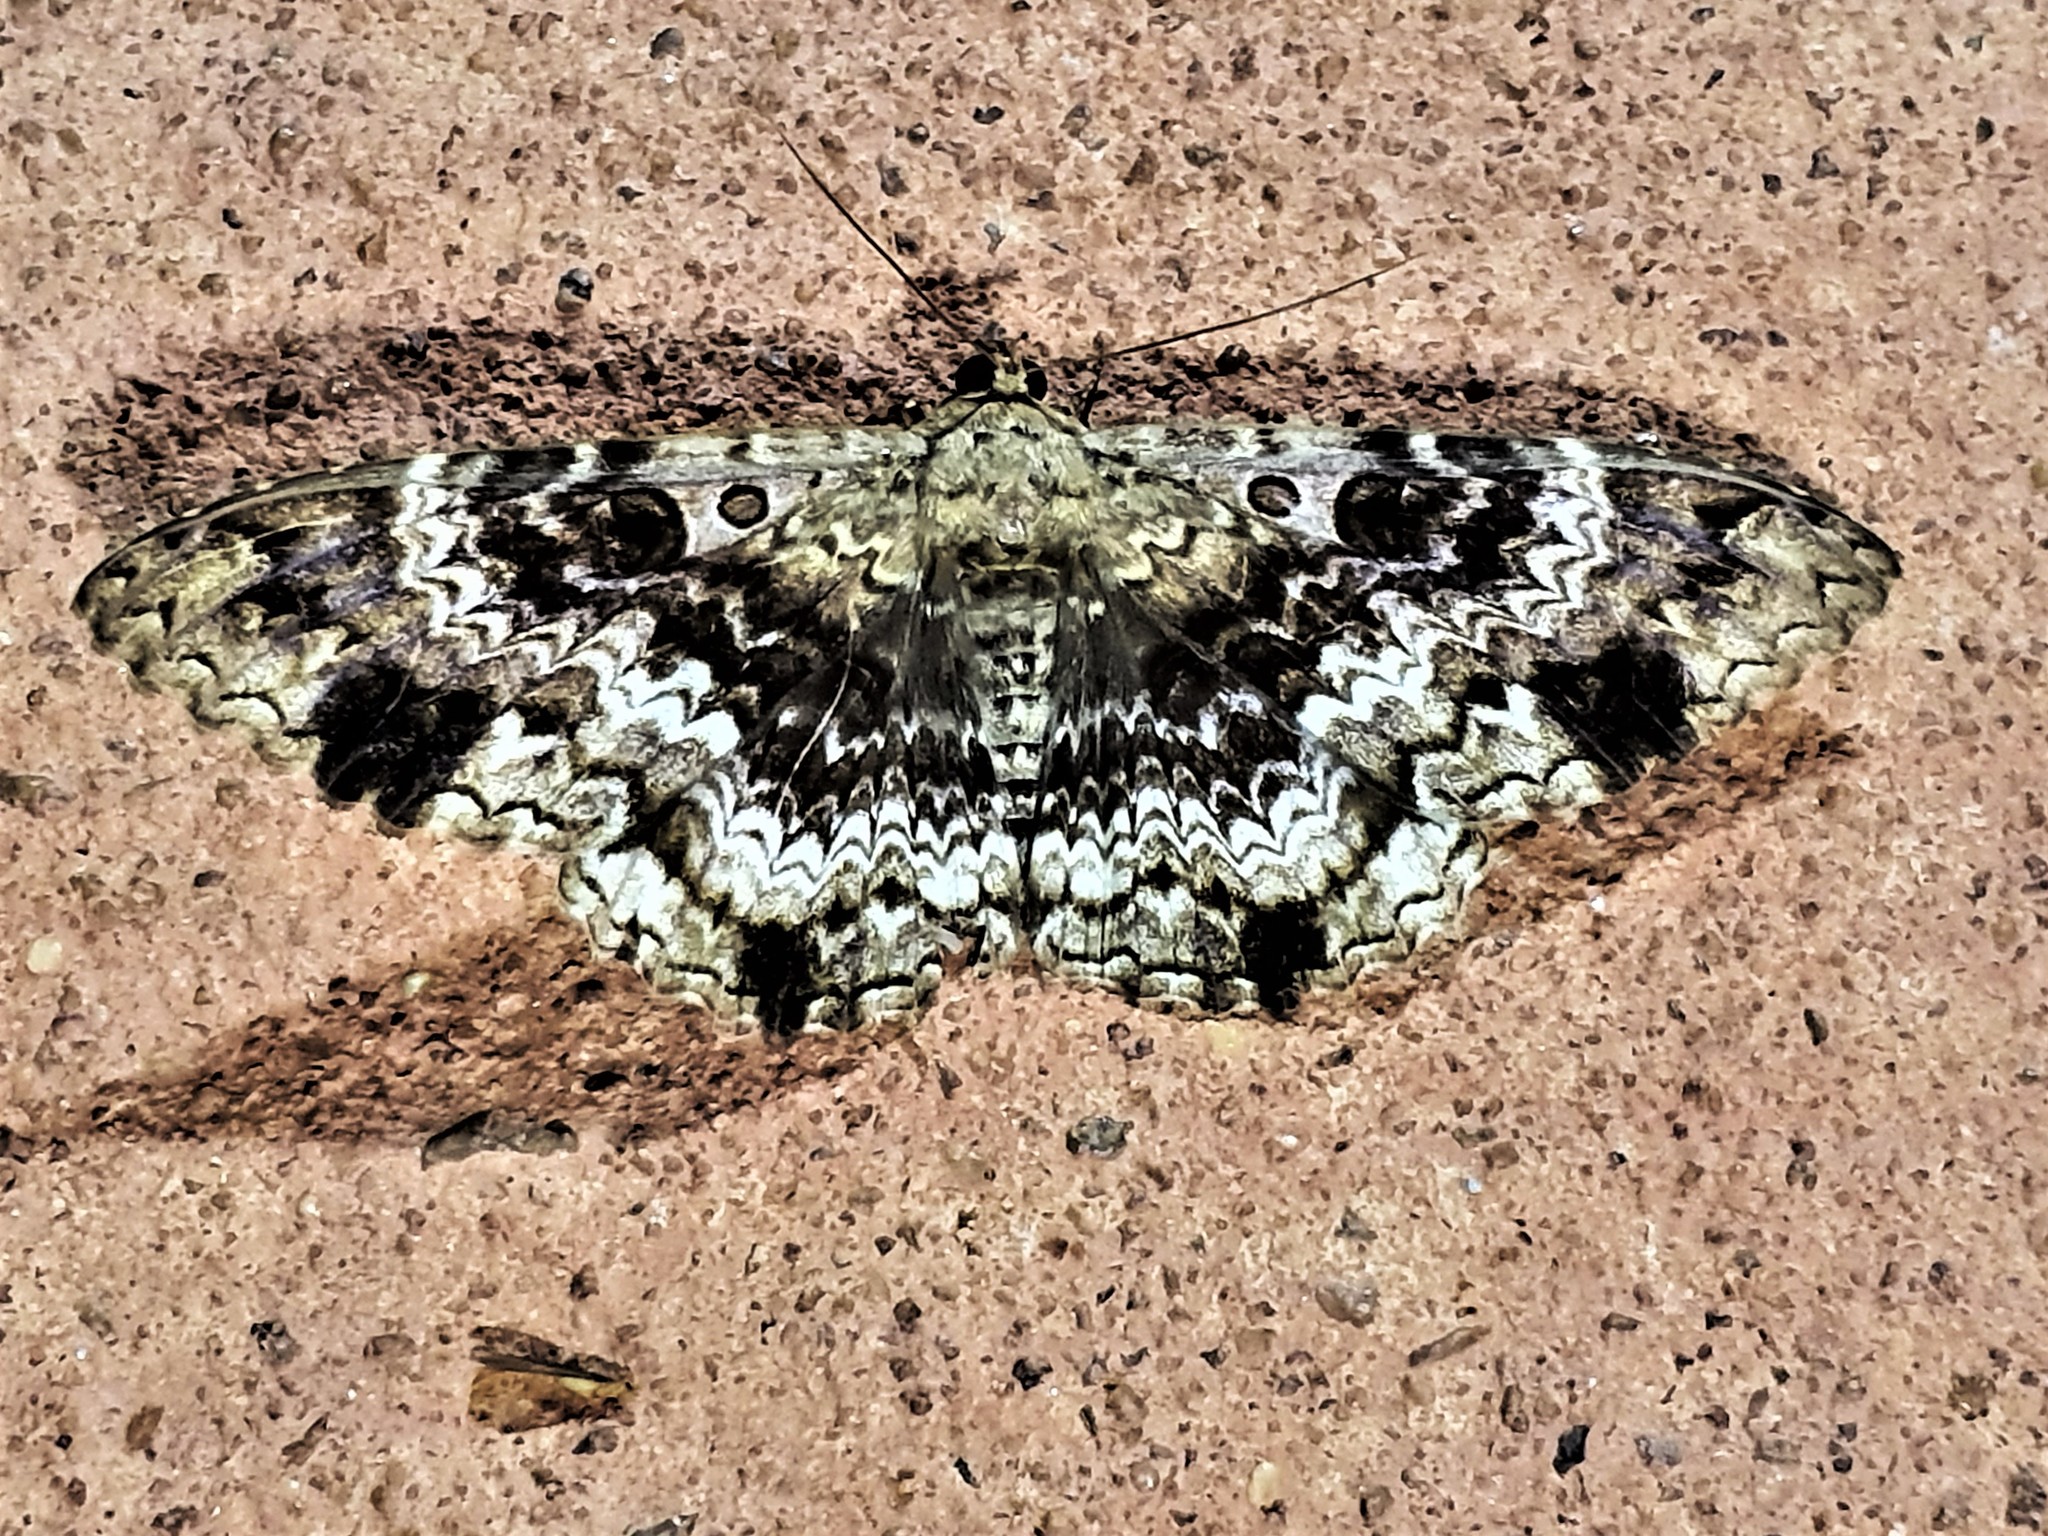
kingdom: Animalia
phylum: Arthropoda
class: Insecta
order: Lepidoptera
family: Erebidae
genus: Feigeria
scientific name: Feigeria scops
